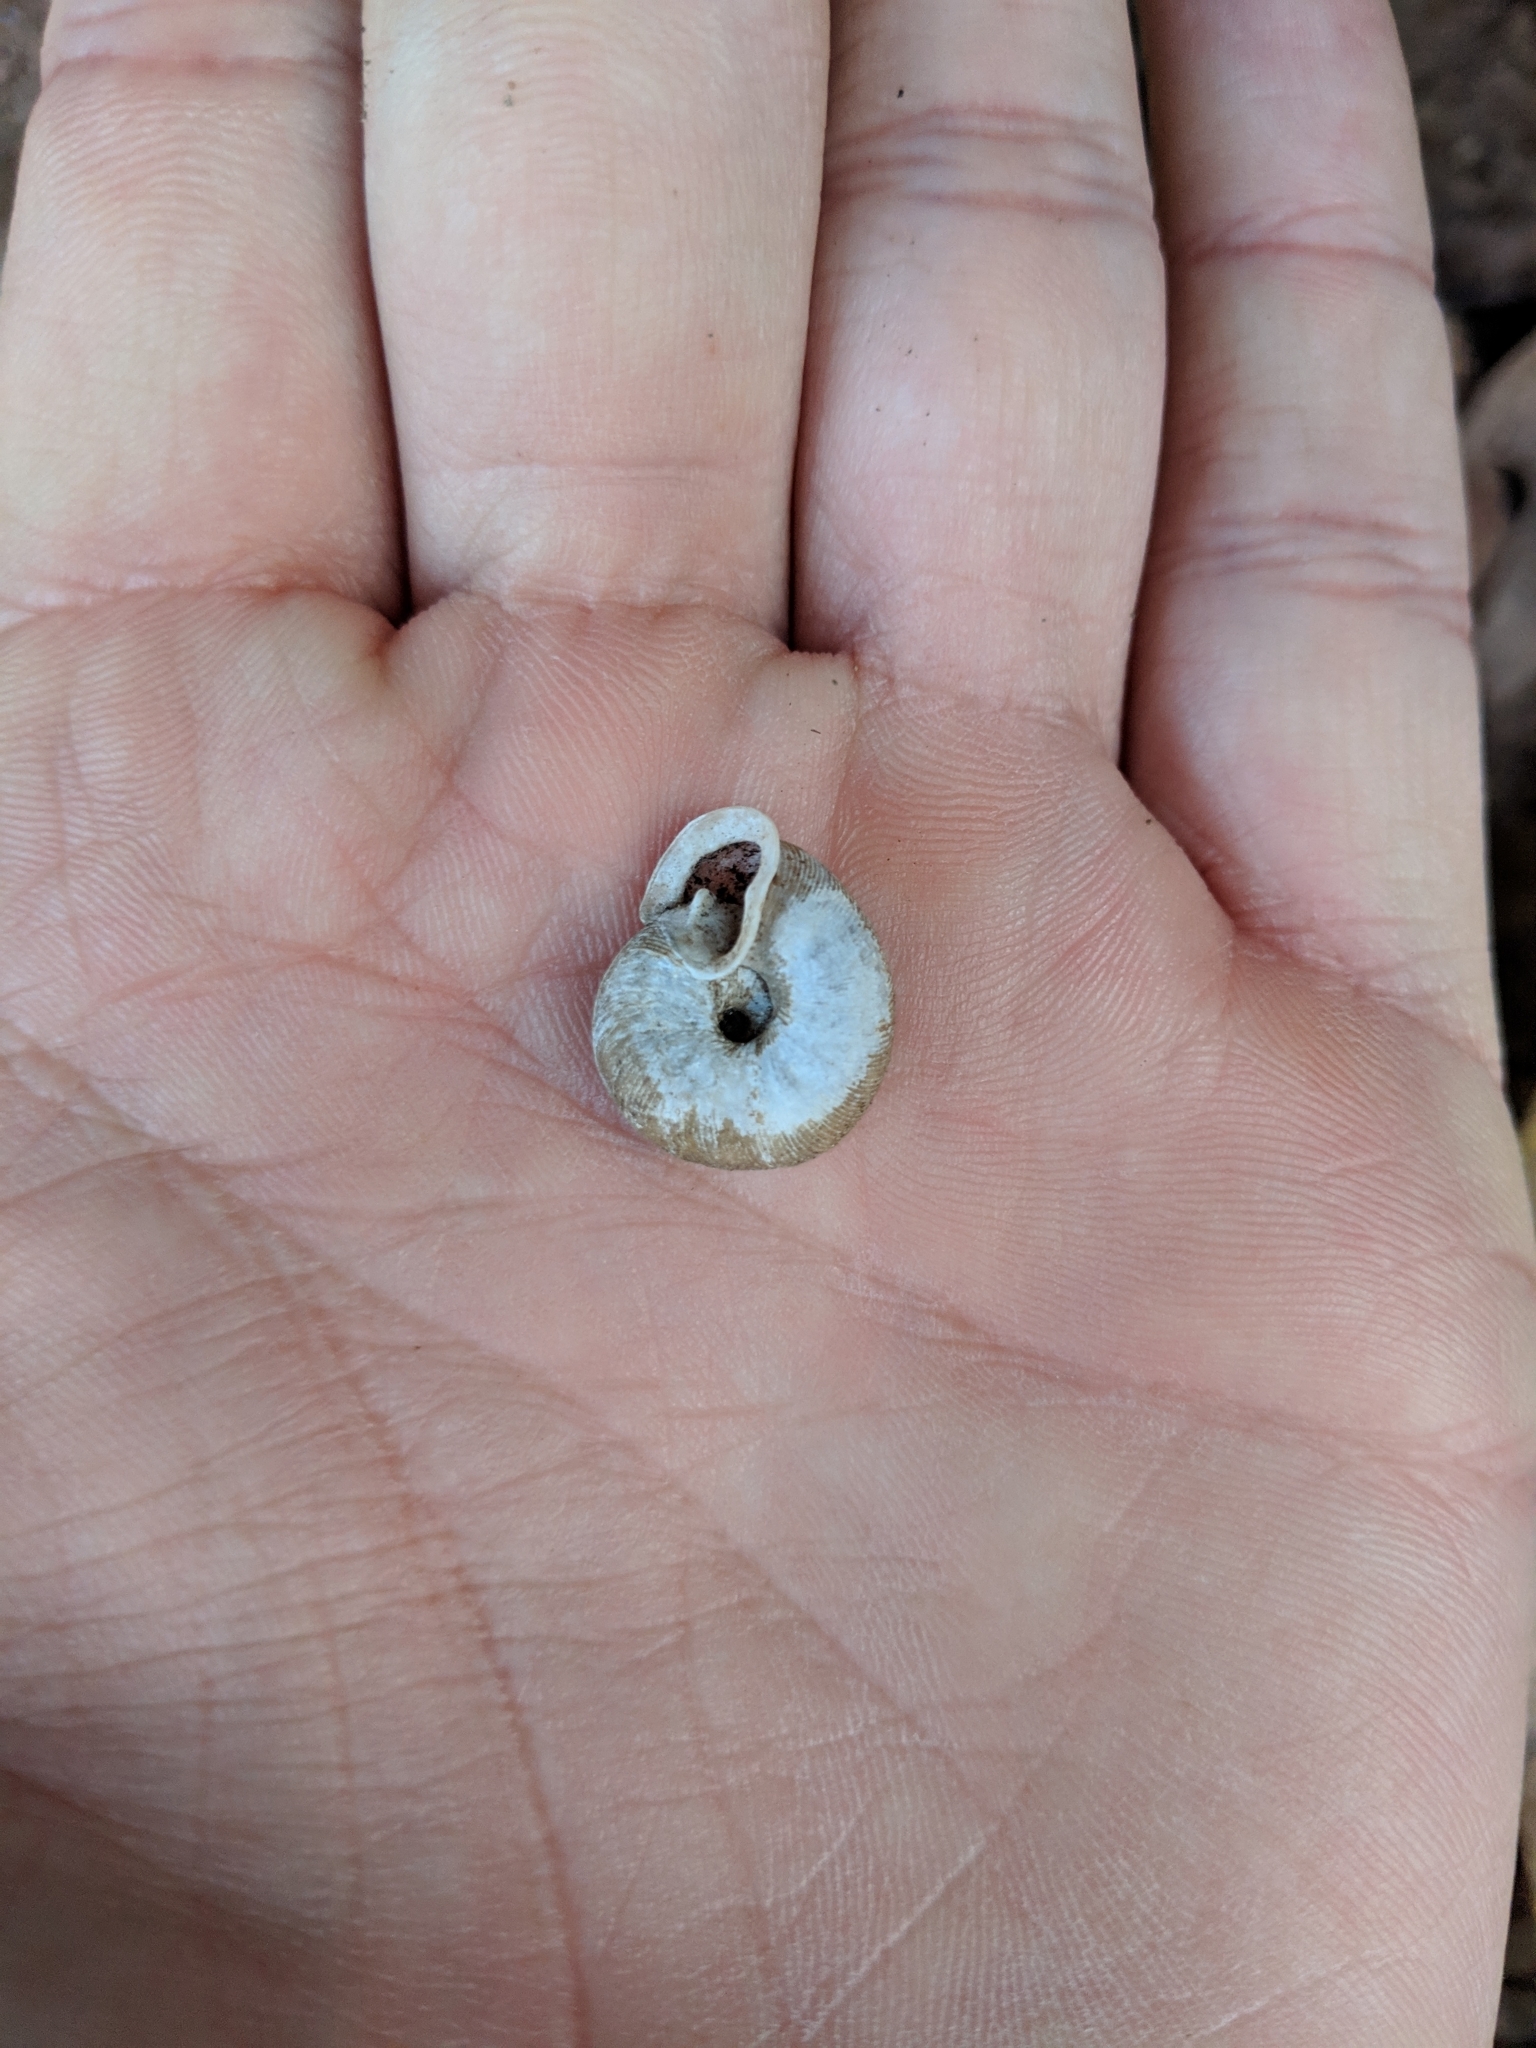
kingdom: Animalia
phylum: Mollusca
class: Gastropoda
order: Stylommatophora
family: Polygyridae
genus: Triodopsis
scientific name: Triodopsis tennesseensis
